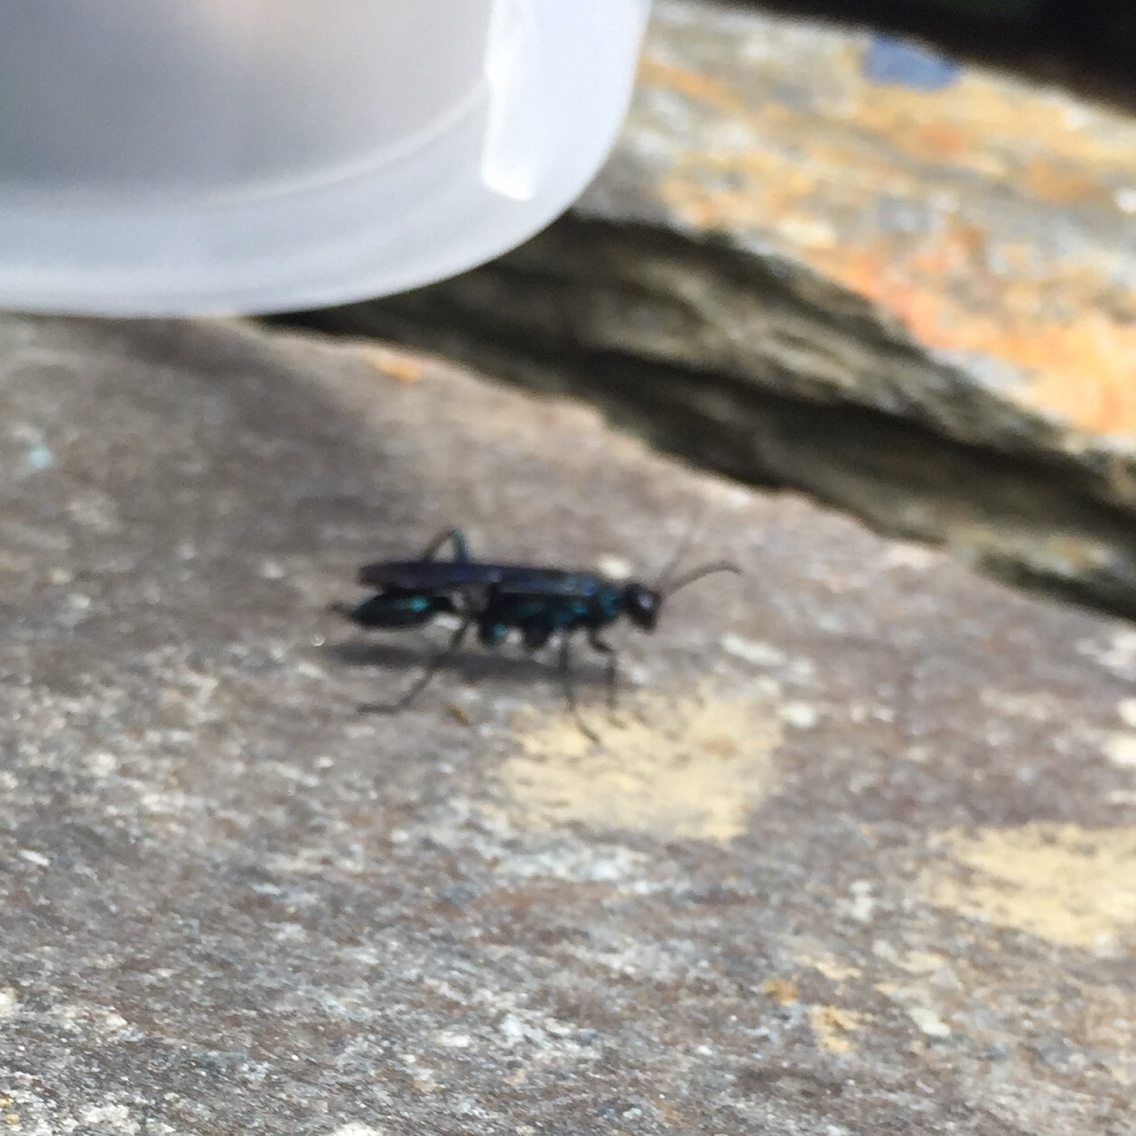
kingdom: Animalia
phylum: Arthropoda
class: Insecta
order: Hymenoptera
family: Sphecidae
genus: Chlorion
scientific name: Chlorion aerarium
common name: Steel-blue cricket hunter
